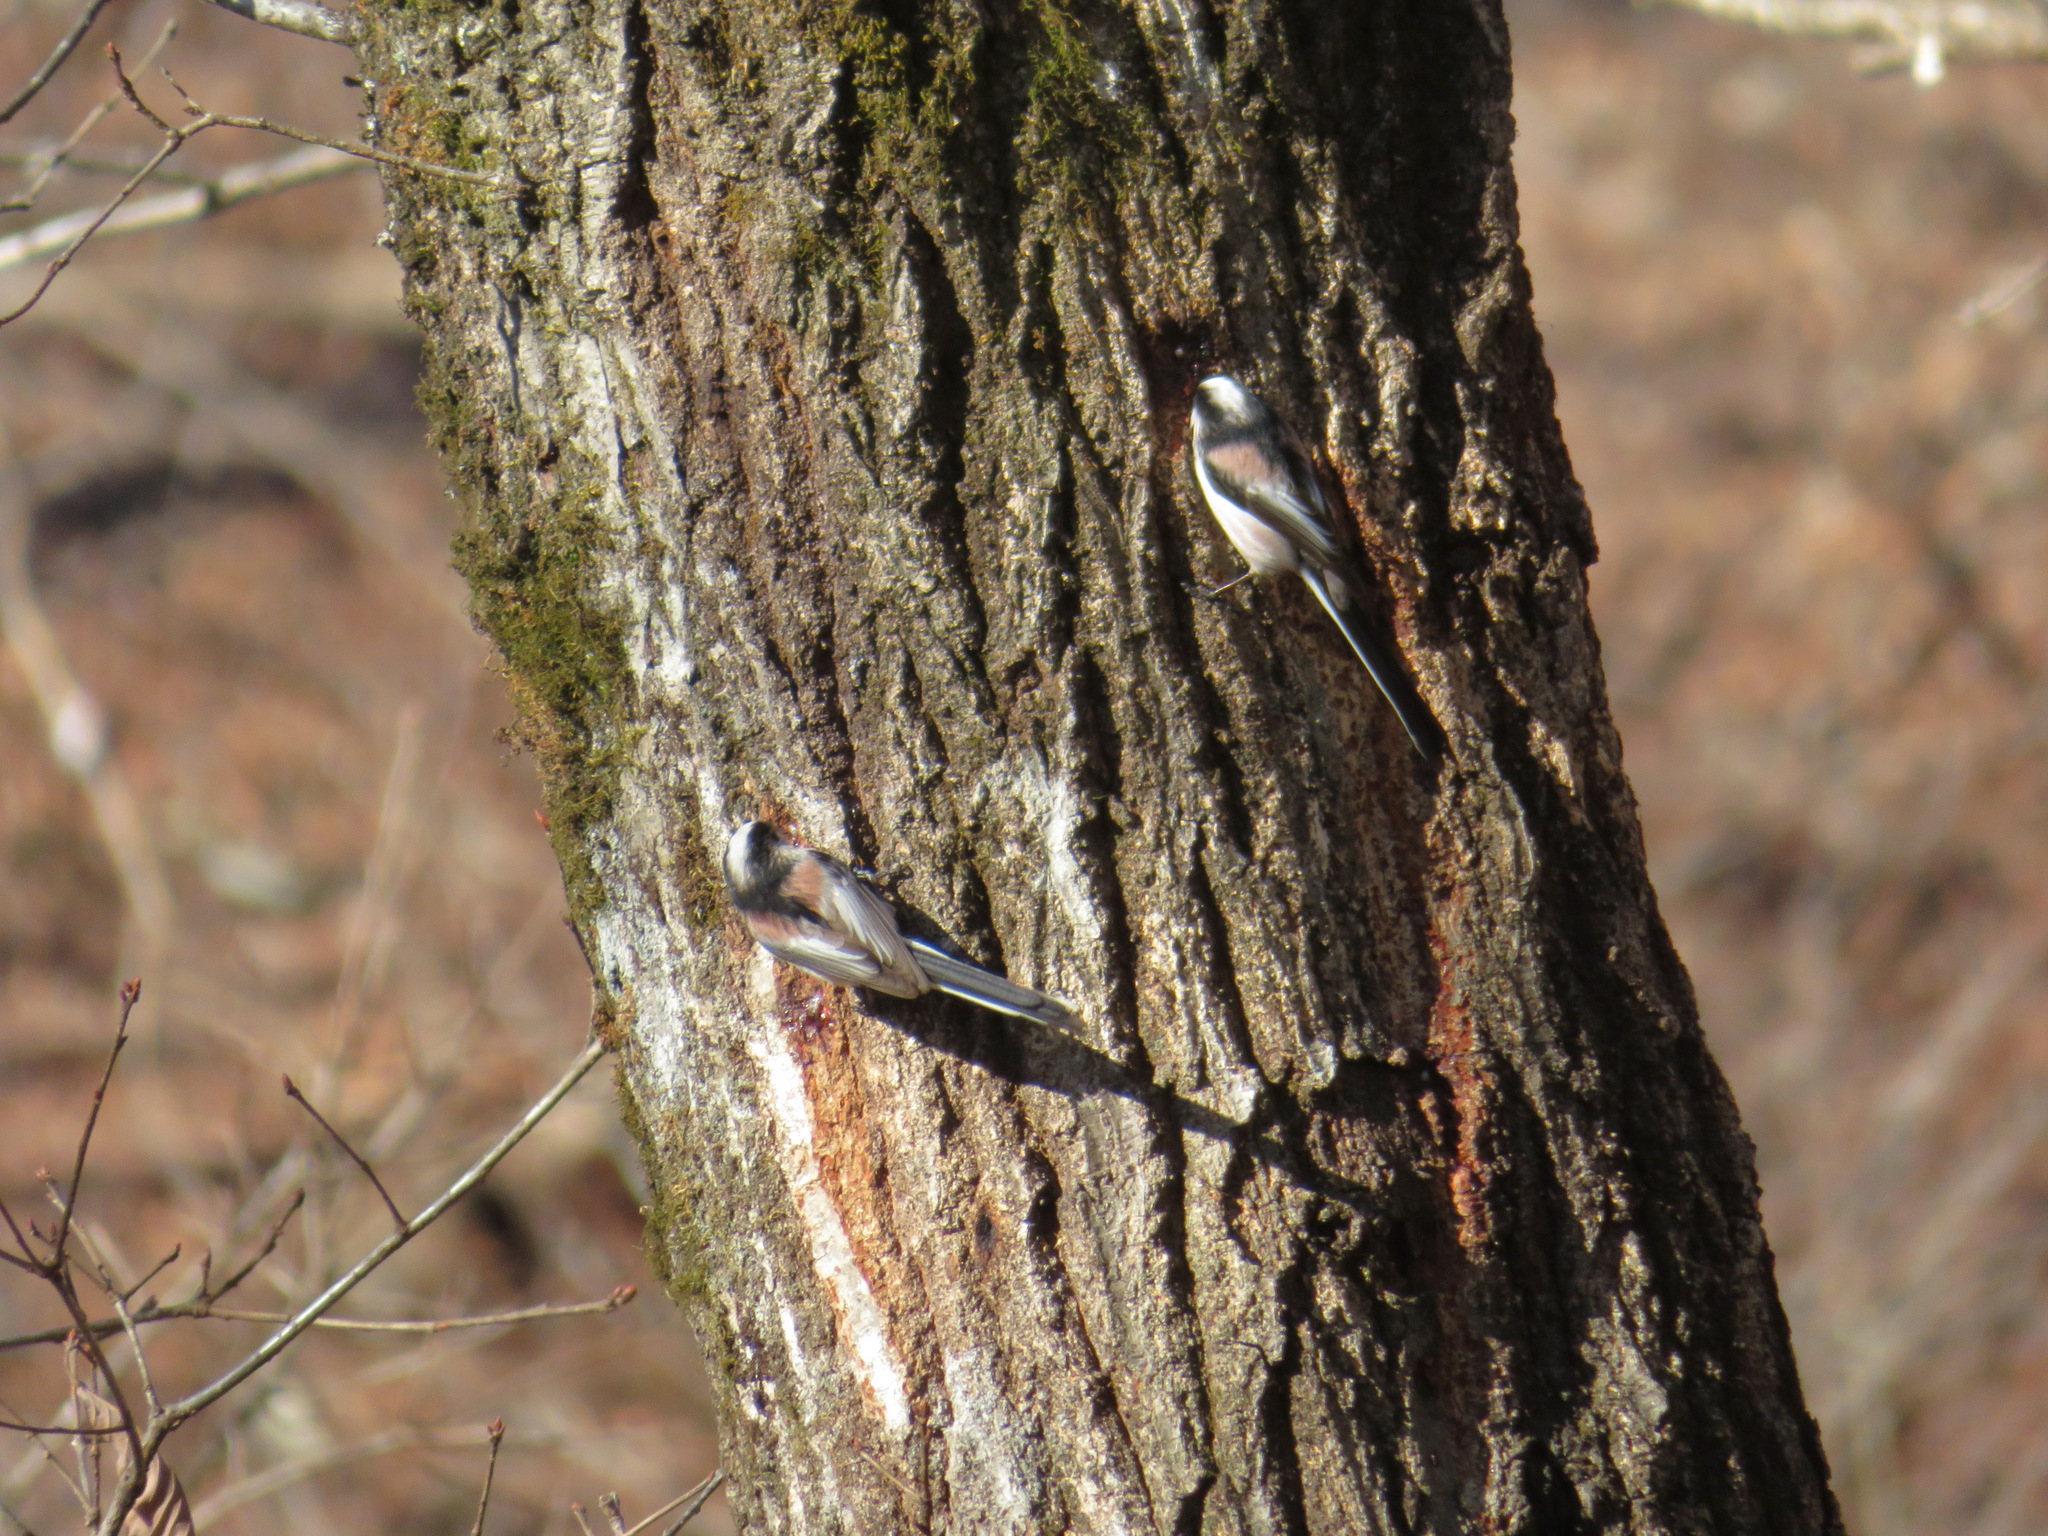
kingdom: Animalia
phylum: Chordata
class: Aves
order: Passeriformes
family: Aegithalidae
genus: Aegithalos
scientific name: Aegithalos caudatus
